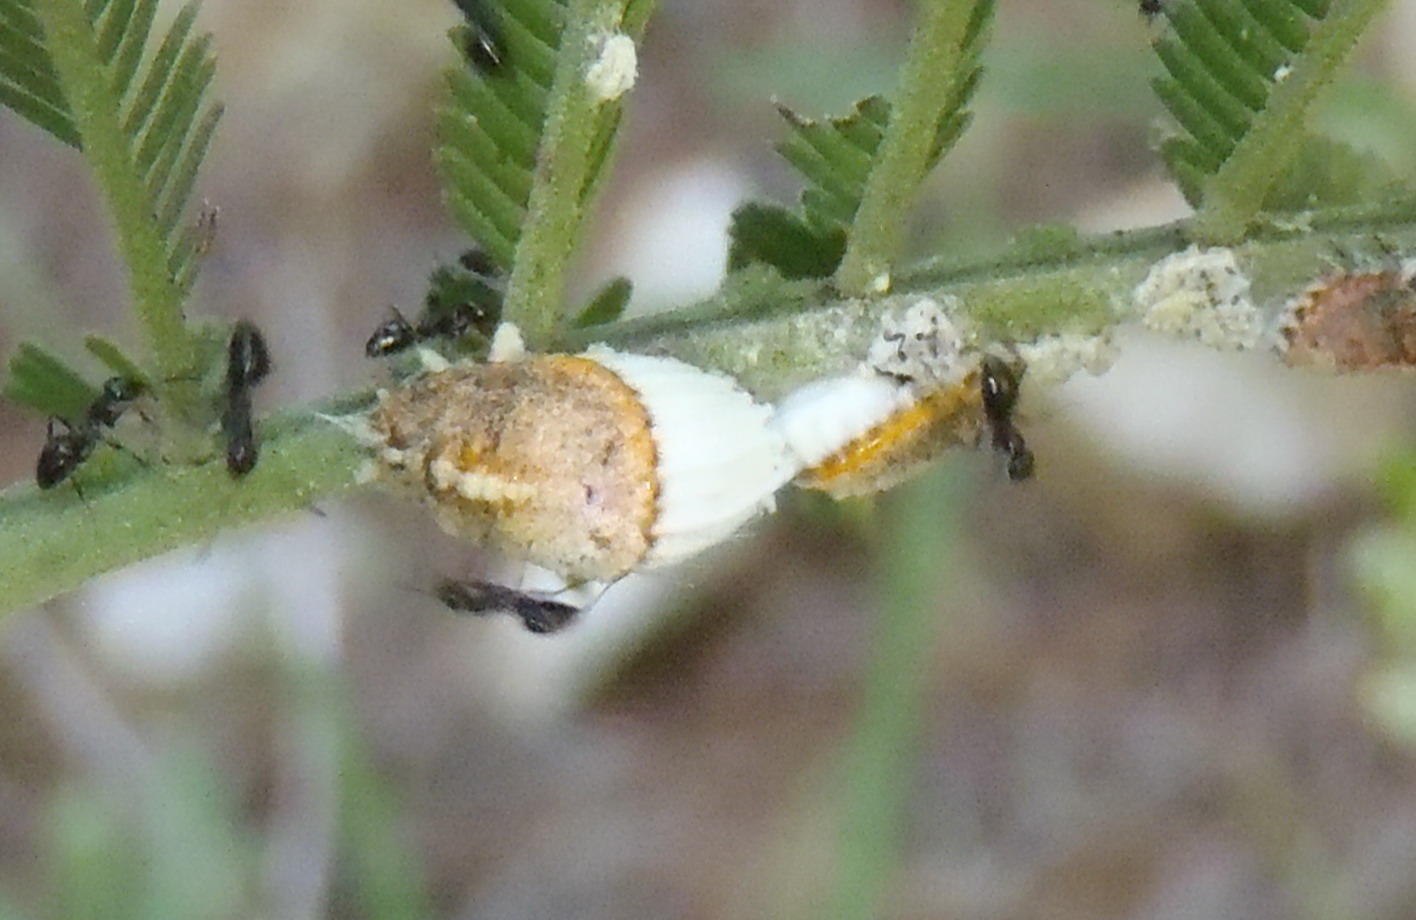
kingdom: Animalia
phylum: Arthropoda
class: Insecta
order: Hymenoptera
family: Formicidae
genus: Lepisiota
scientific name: Lepisiota capensis
